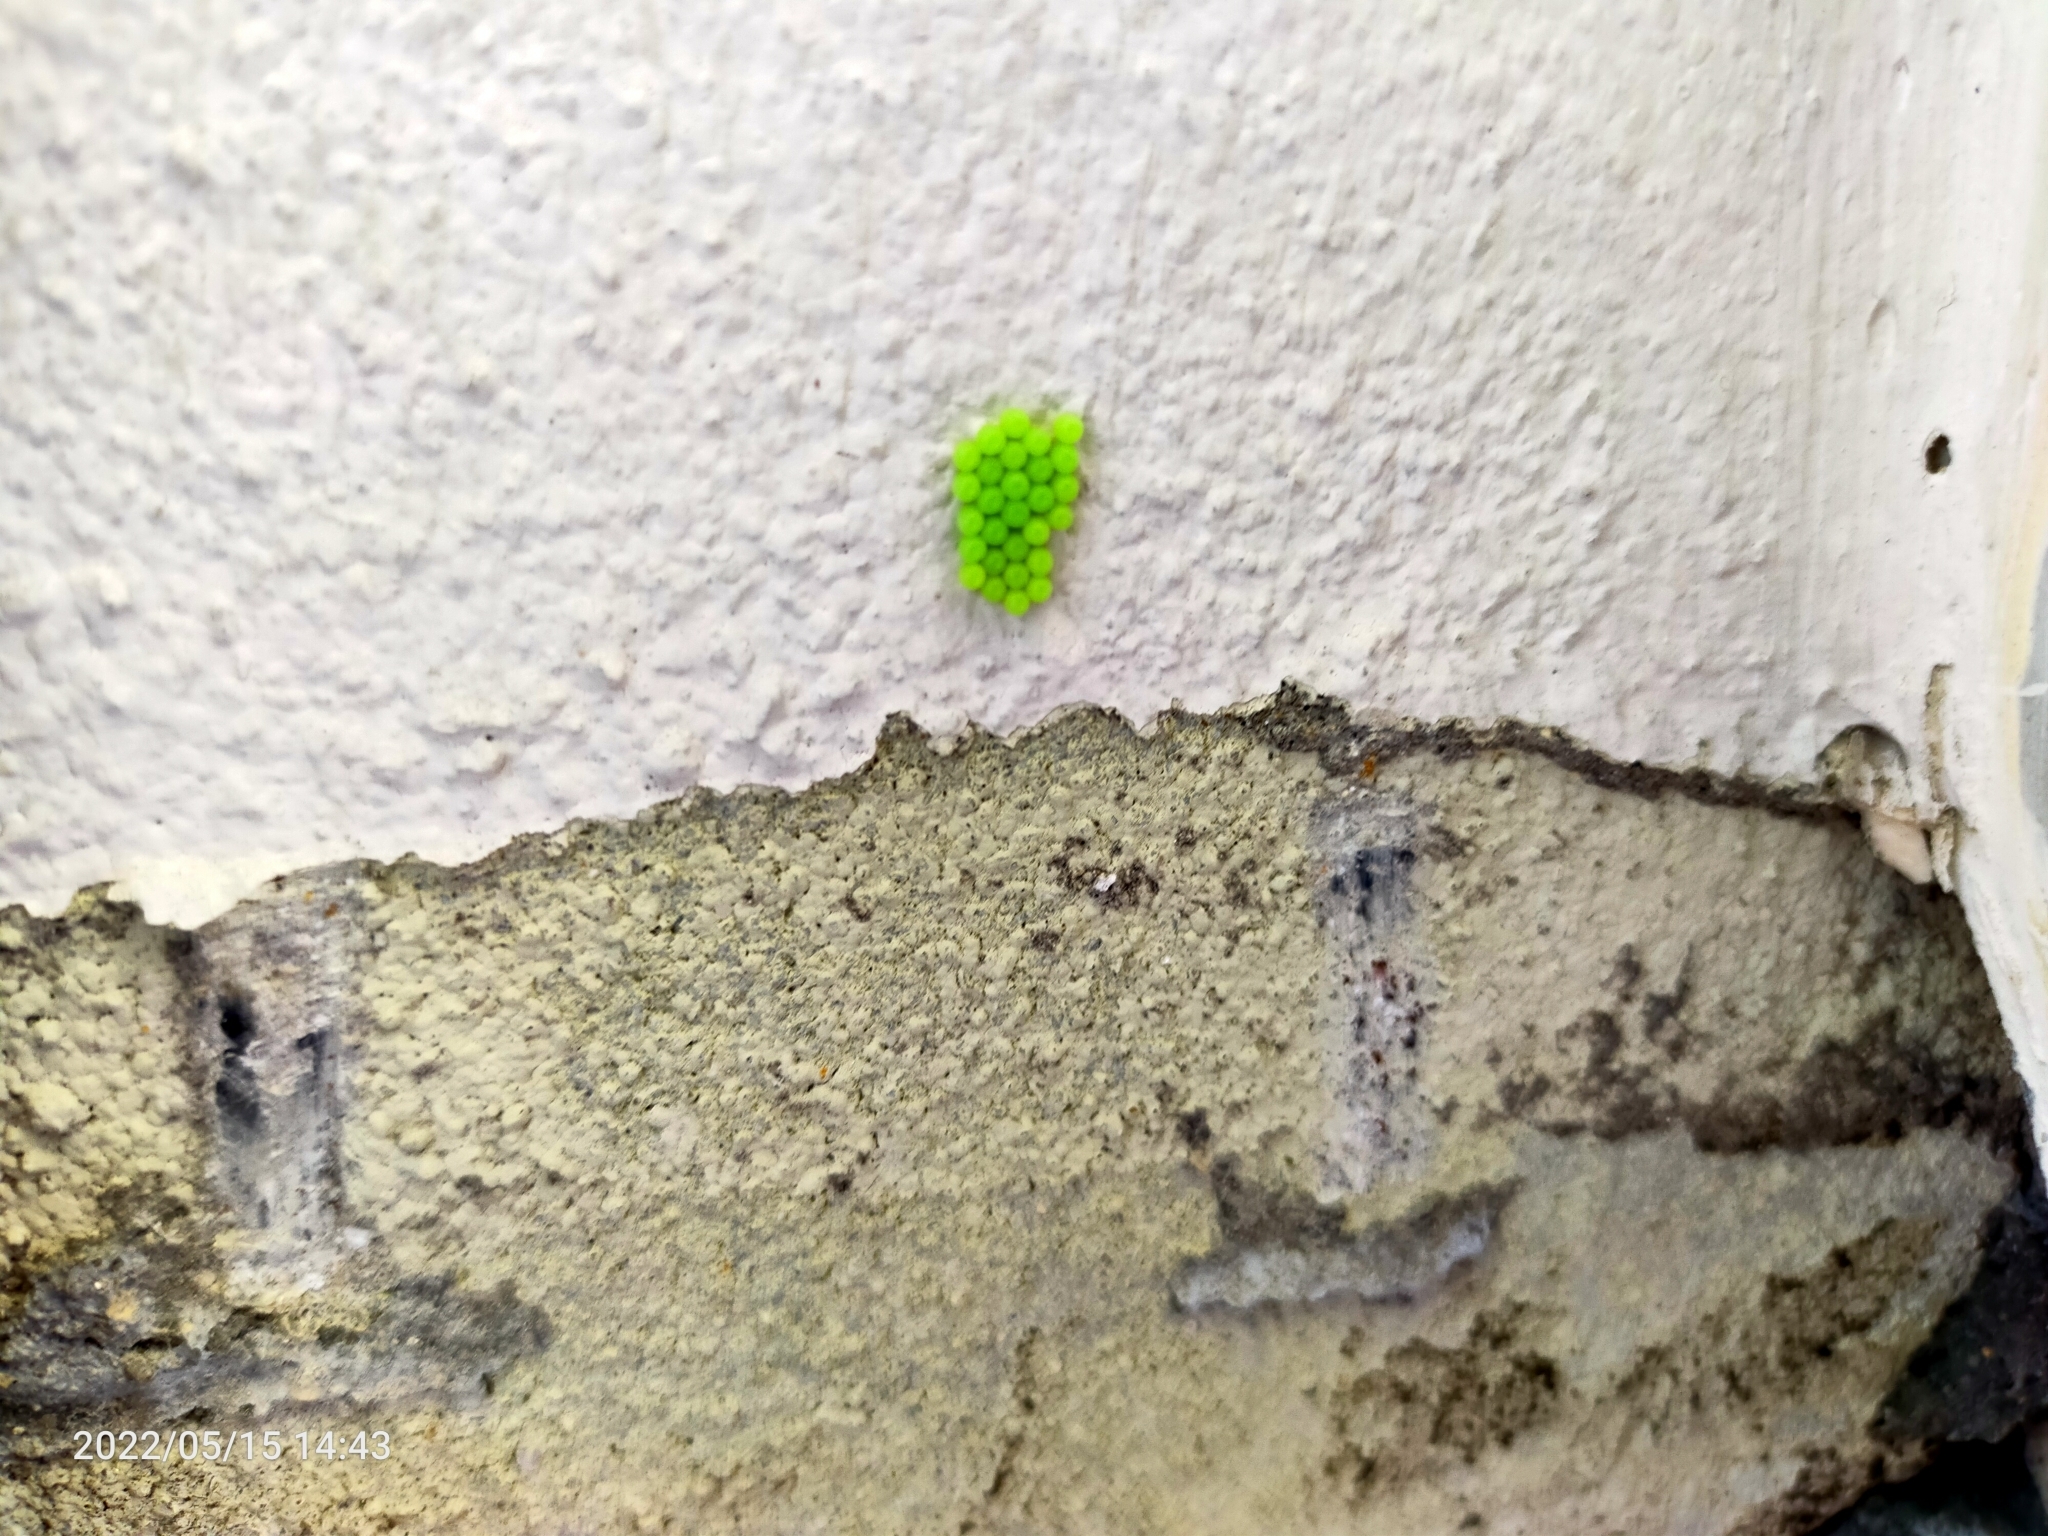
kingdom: Animalia
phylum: Arthropoda
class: Insecta
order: Hemiptera
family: Pentatomidae
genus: Palomena
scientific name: Palomena prasina
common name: Green shieldbug
